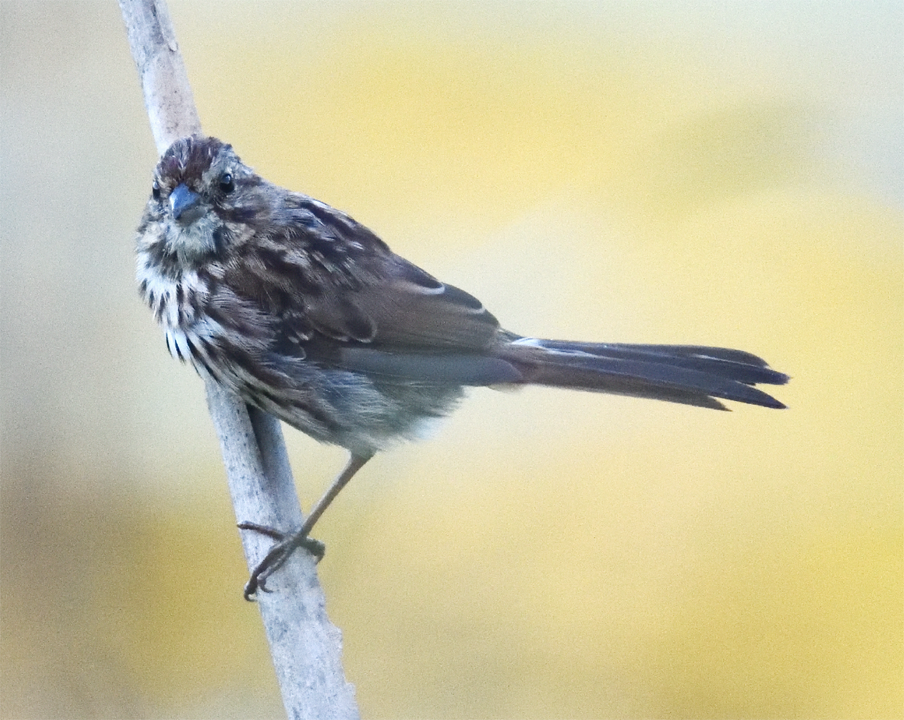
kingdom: Animalia
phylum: Chordata
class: Aves
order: Passeriformes
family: Passerellidae
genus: Melospiza
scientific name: Melospiza melodia
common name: Song sparrow
